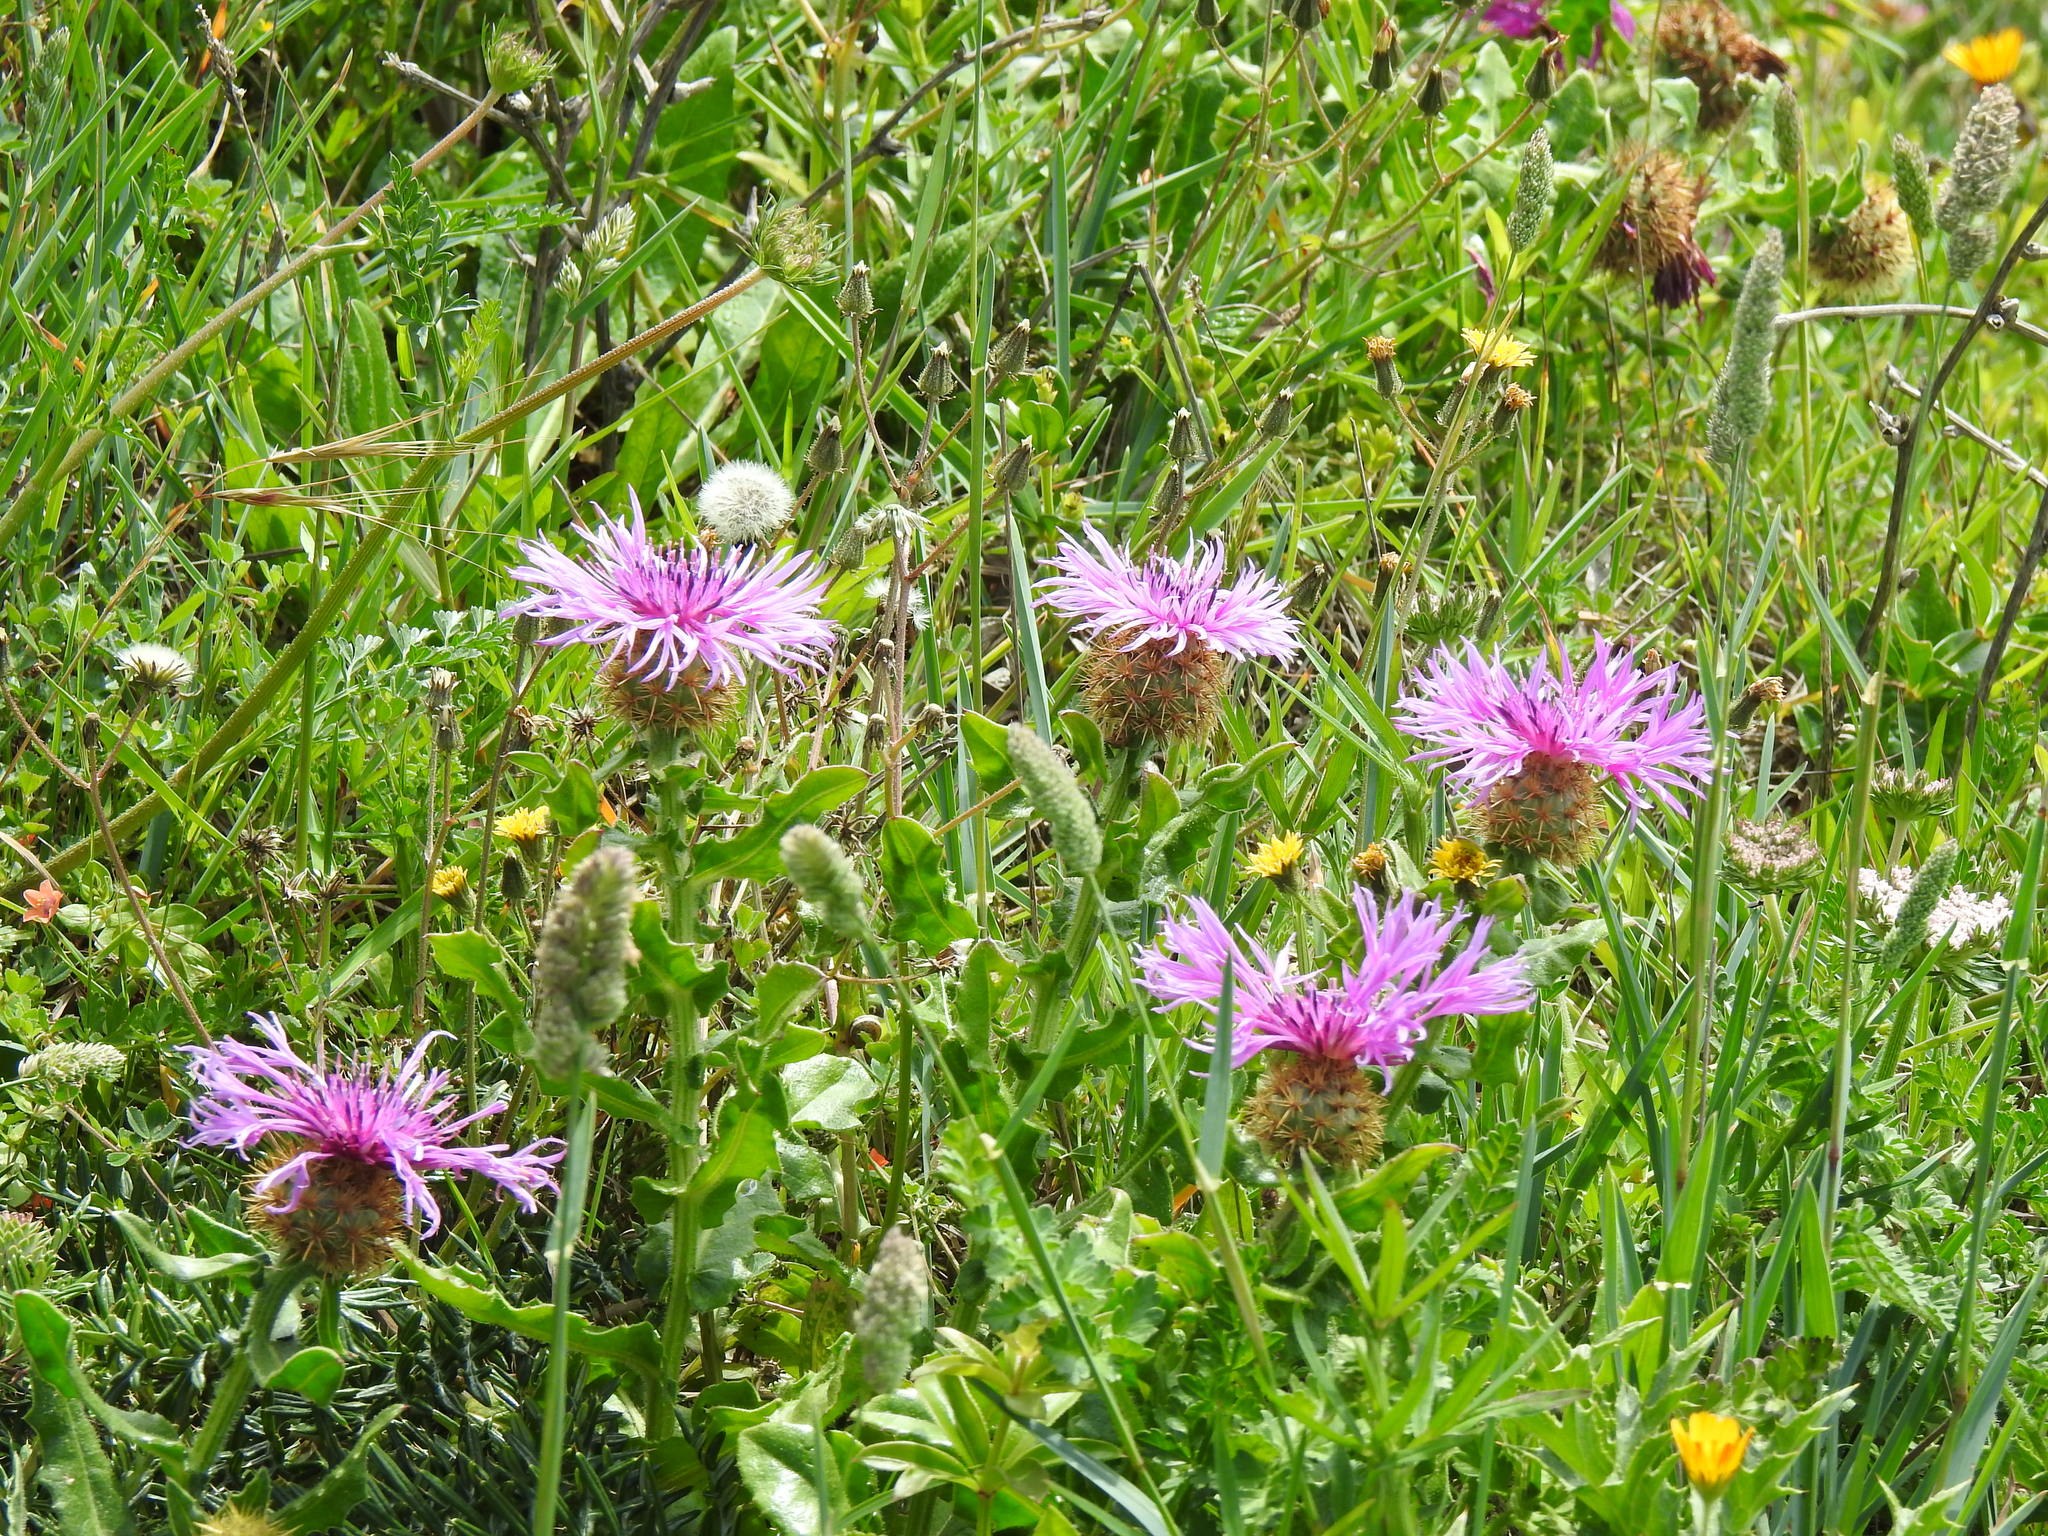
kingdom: Plantae
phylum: Tracheophyta
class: Magnoliopsida
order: Asterales
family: Asteraceae
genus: Centaurea
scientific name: Centaurea polyacantha
